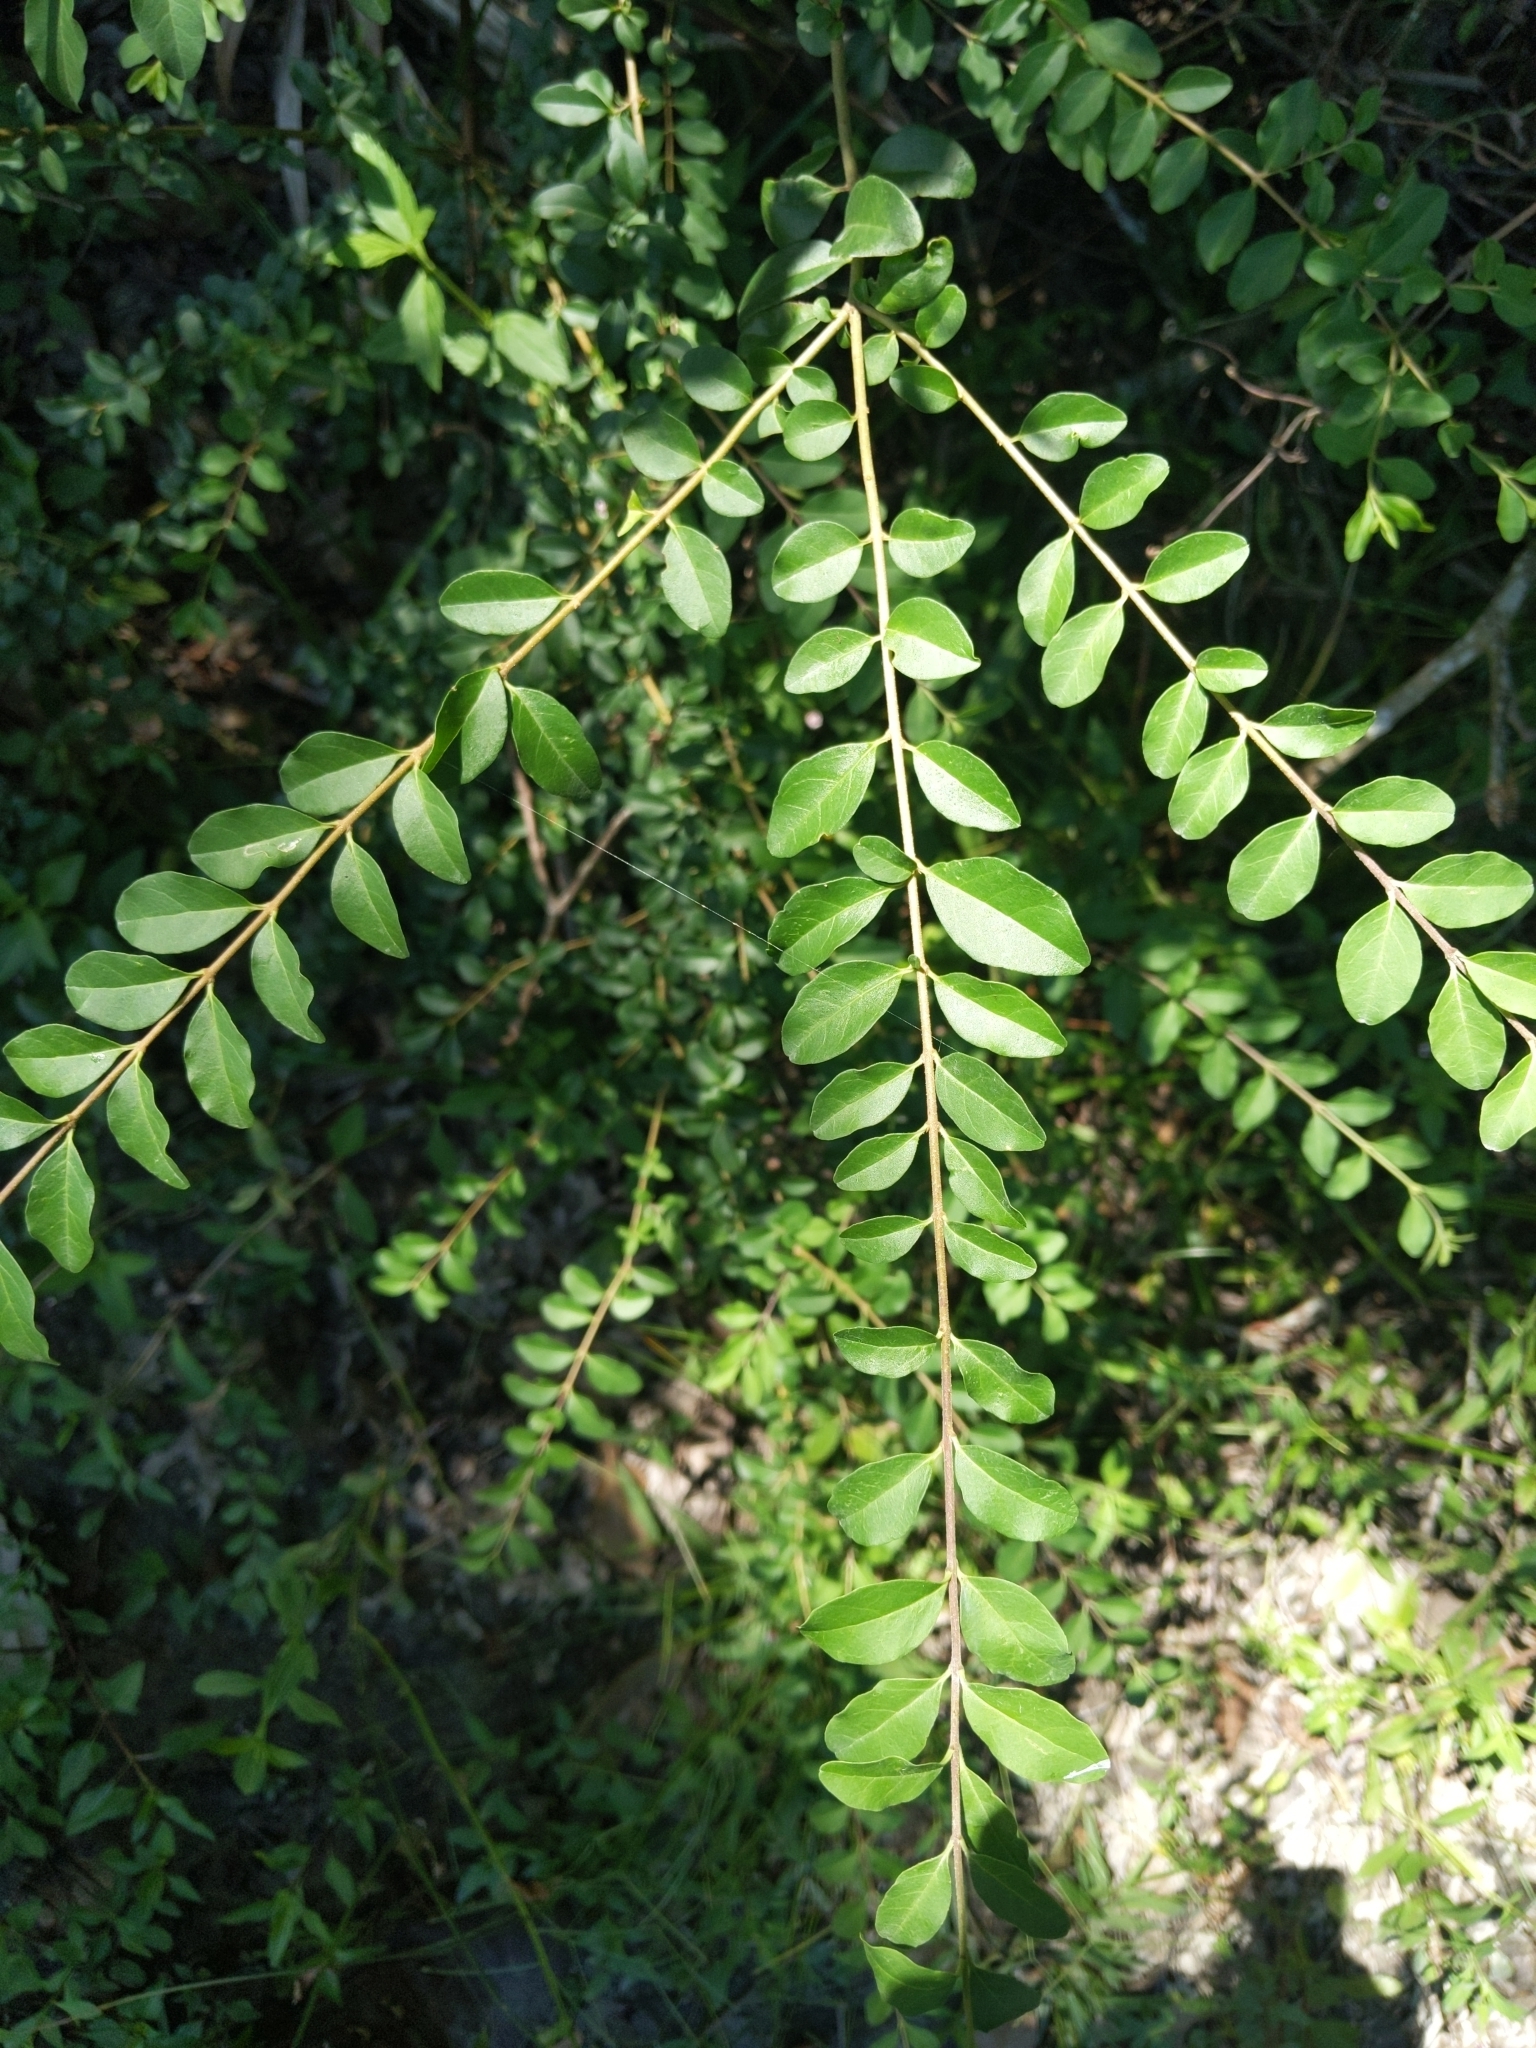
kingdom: Plantae
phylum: Tracheophyta
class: Magnoliopsida
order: Lamiales
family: Oleaceae
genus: Ligustrum
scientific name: Ligustrum sinense
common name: Chinese privet
